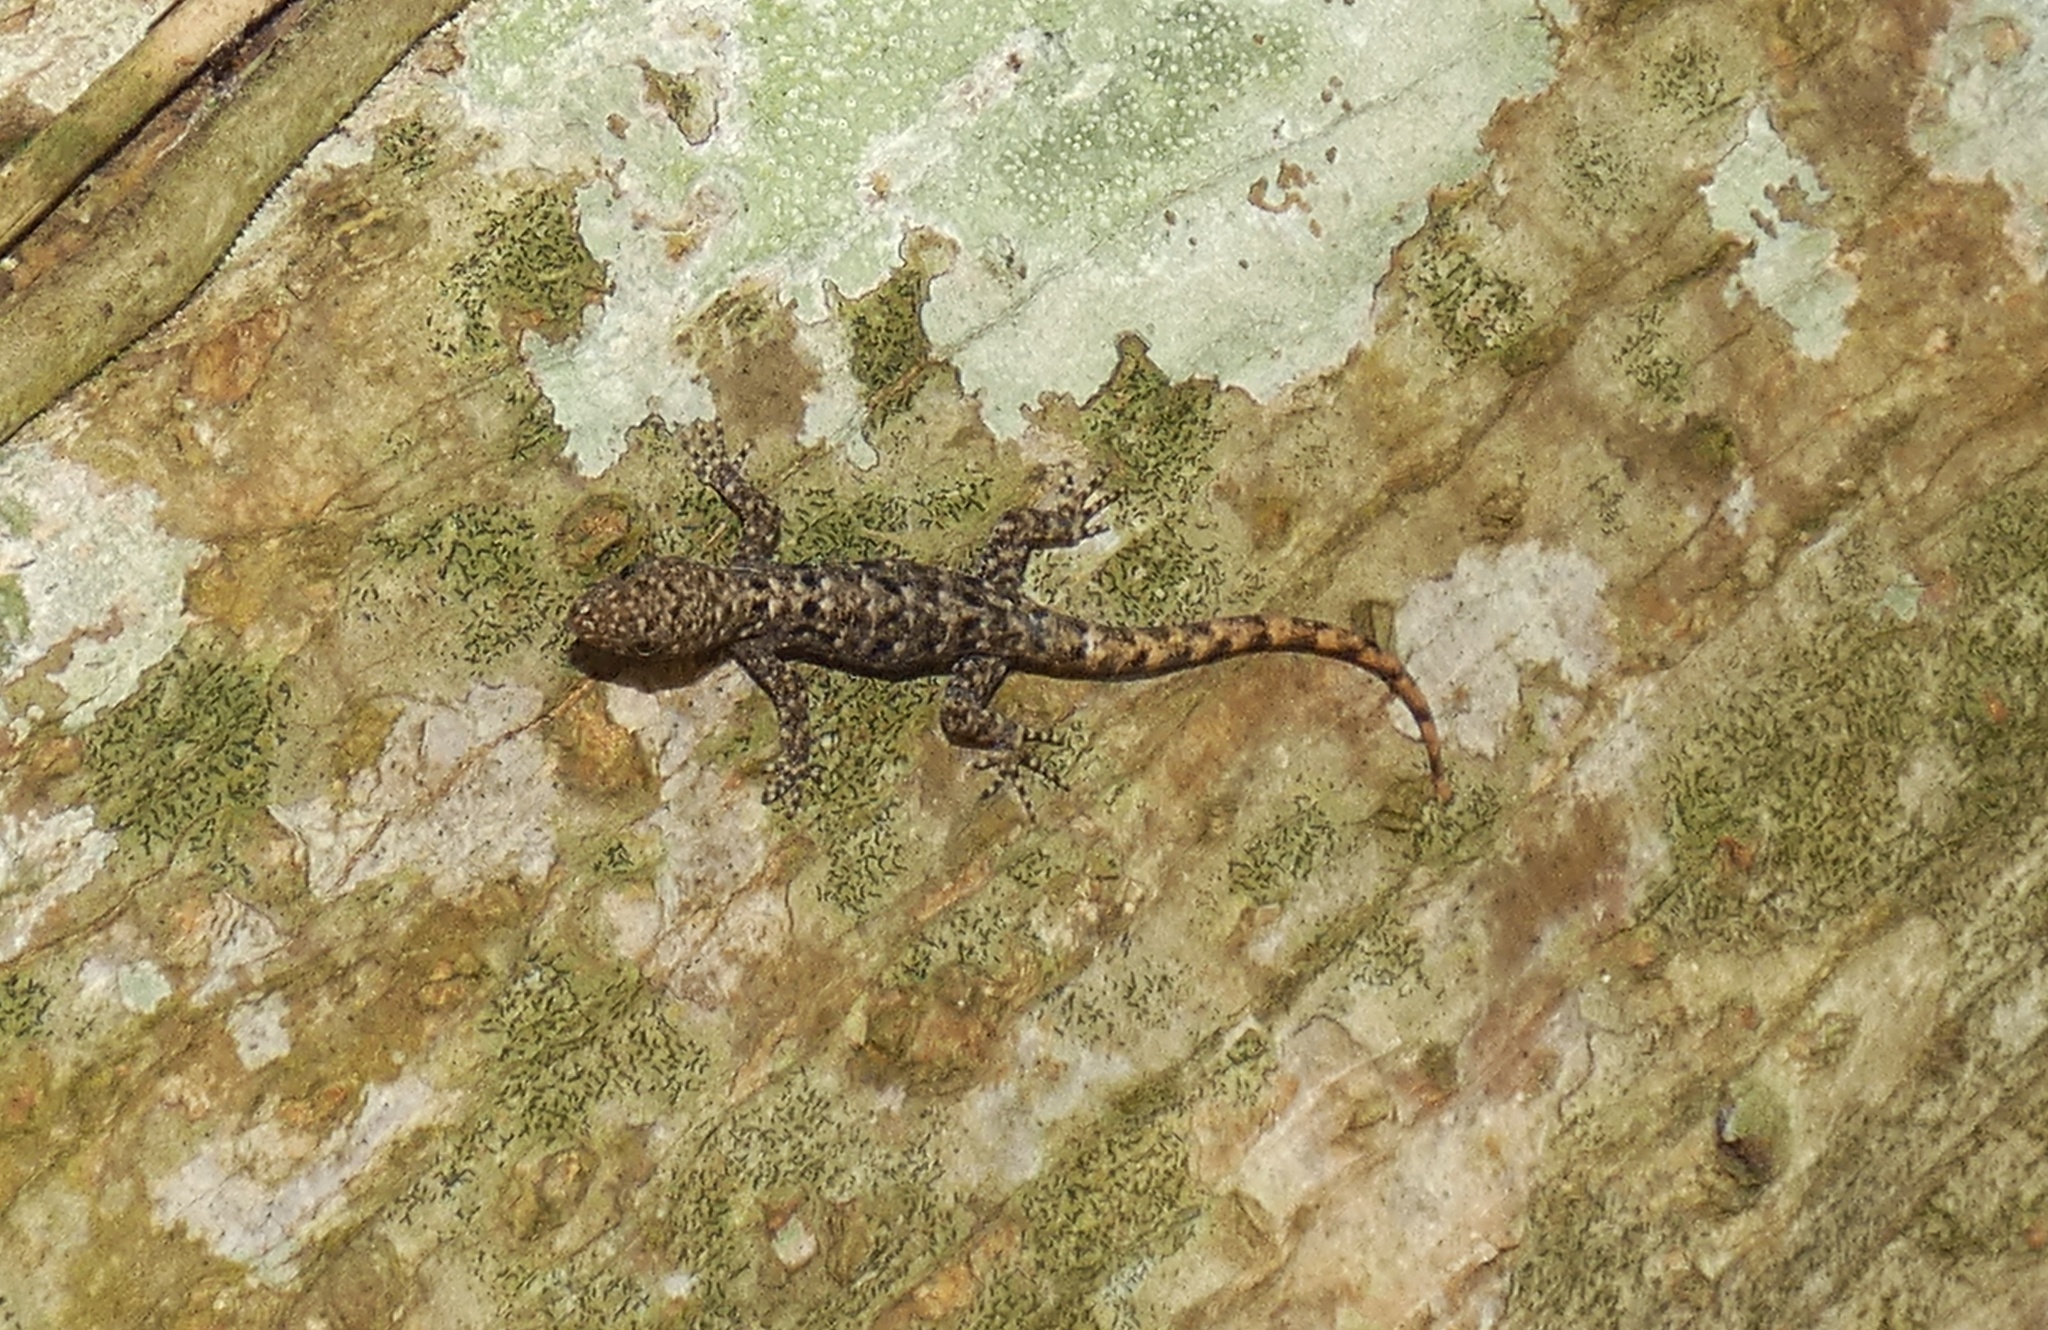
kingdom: Animalia
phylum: Chordata
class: Squamata
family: Sphaerodactylidae
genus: Gonatodes
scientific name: Gonatodes albogularis
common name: Yellow-headed gecko
